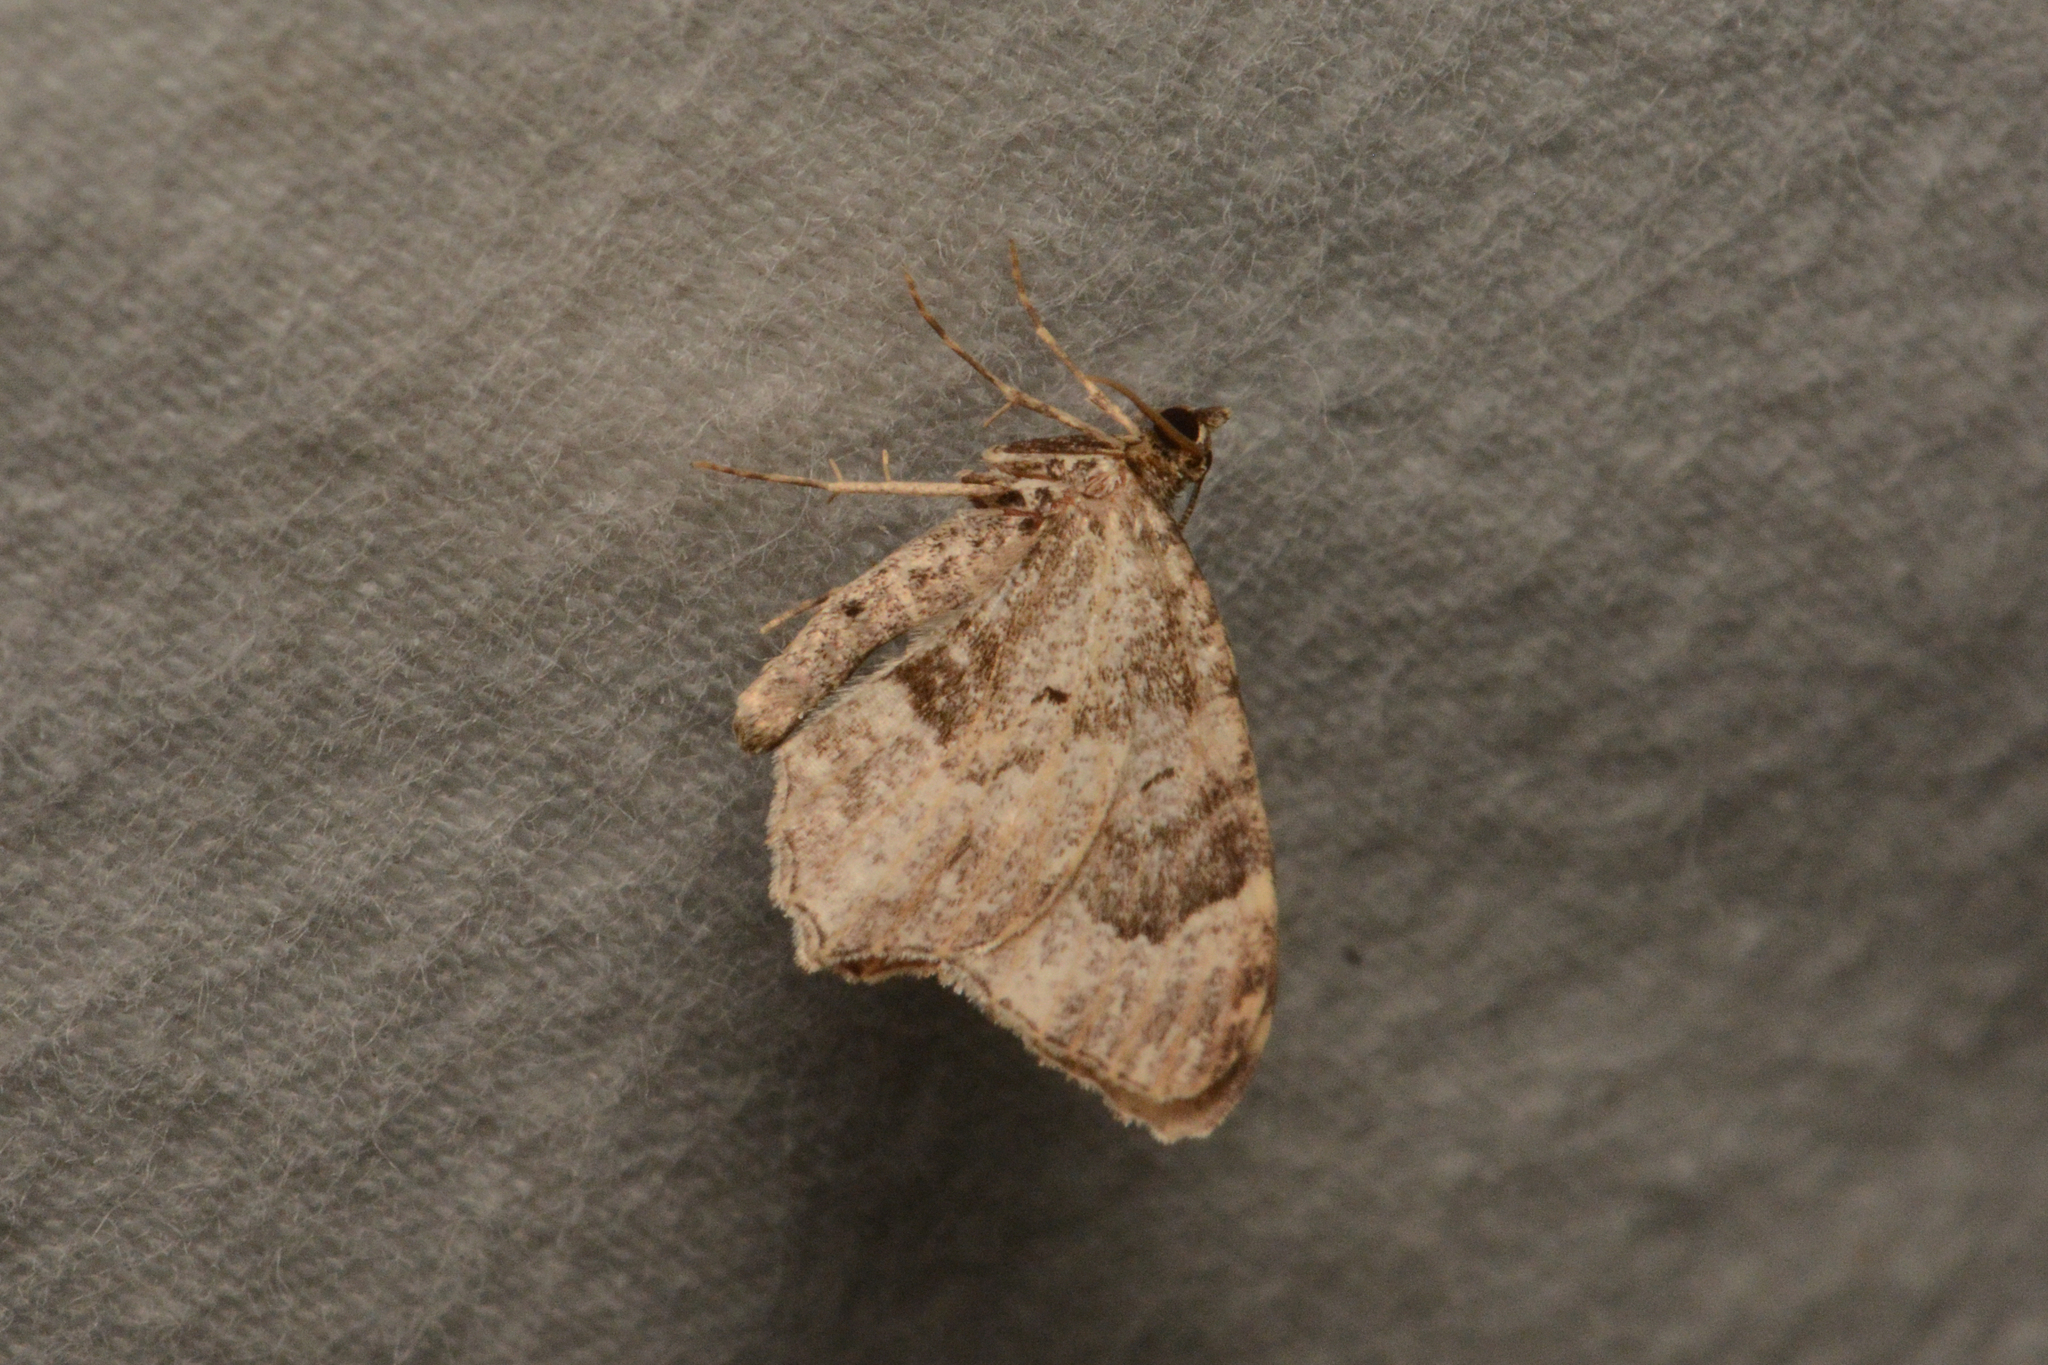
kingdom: Animalia
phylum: Arthropoda
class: Insecta
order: Lepidoptera
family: Geometridae
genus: Ceratodalia
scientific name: Ceratodalia gueneata
